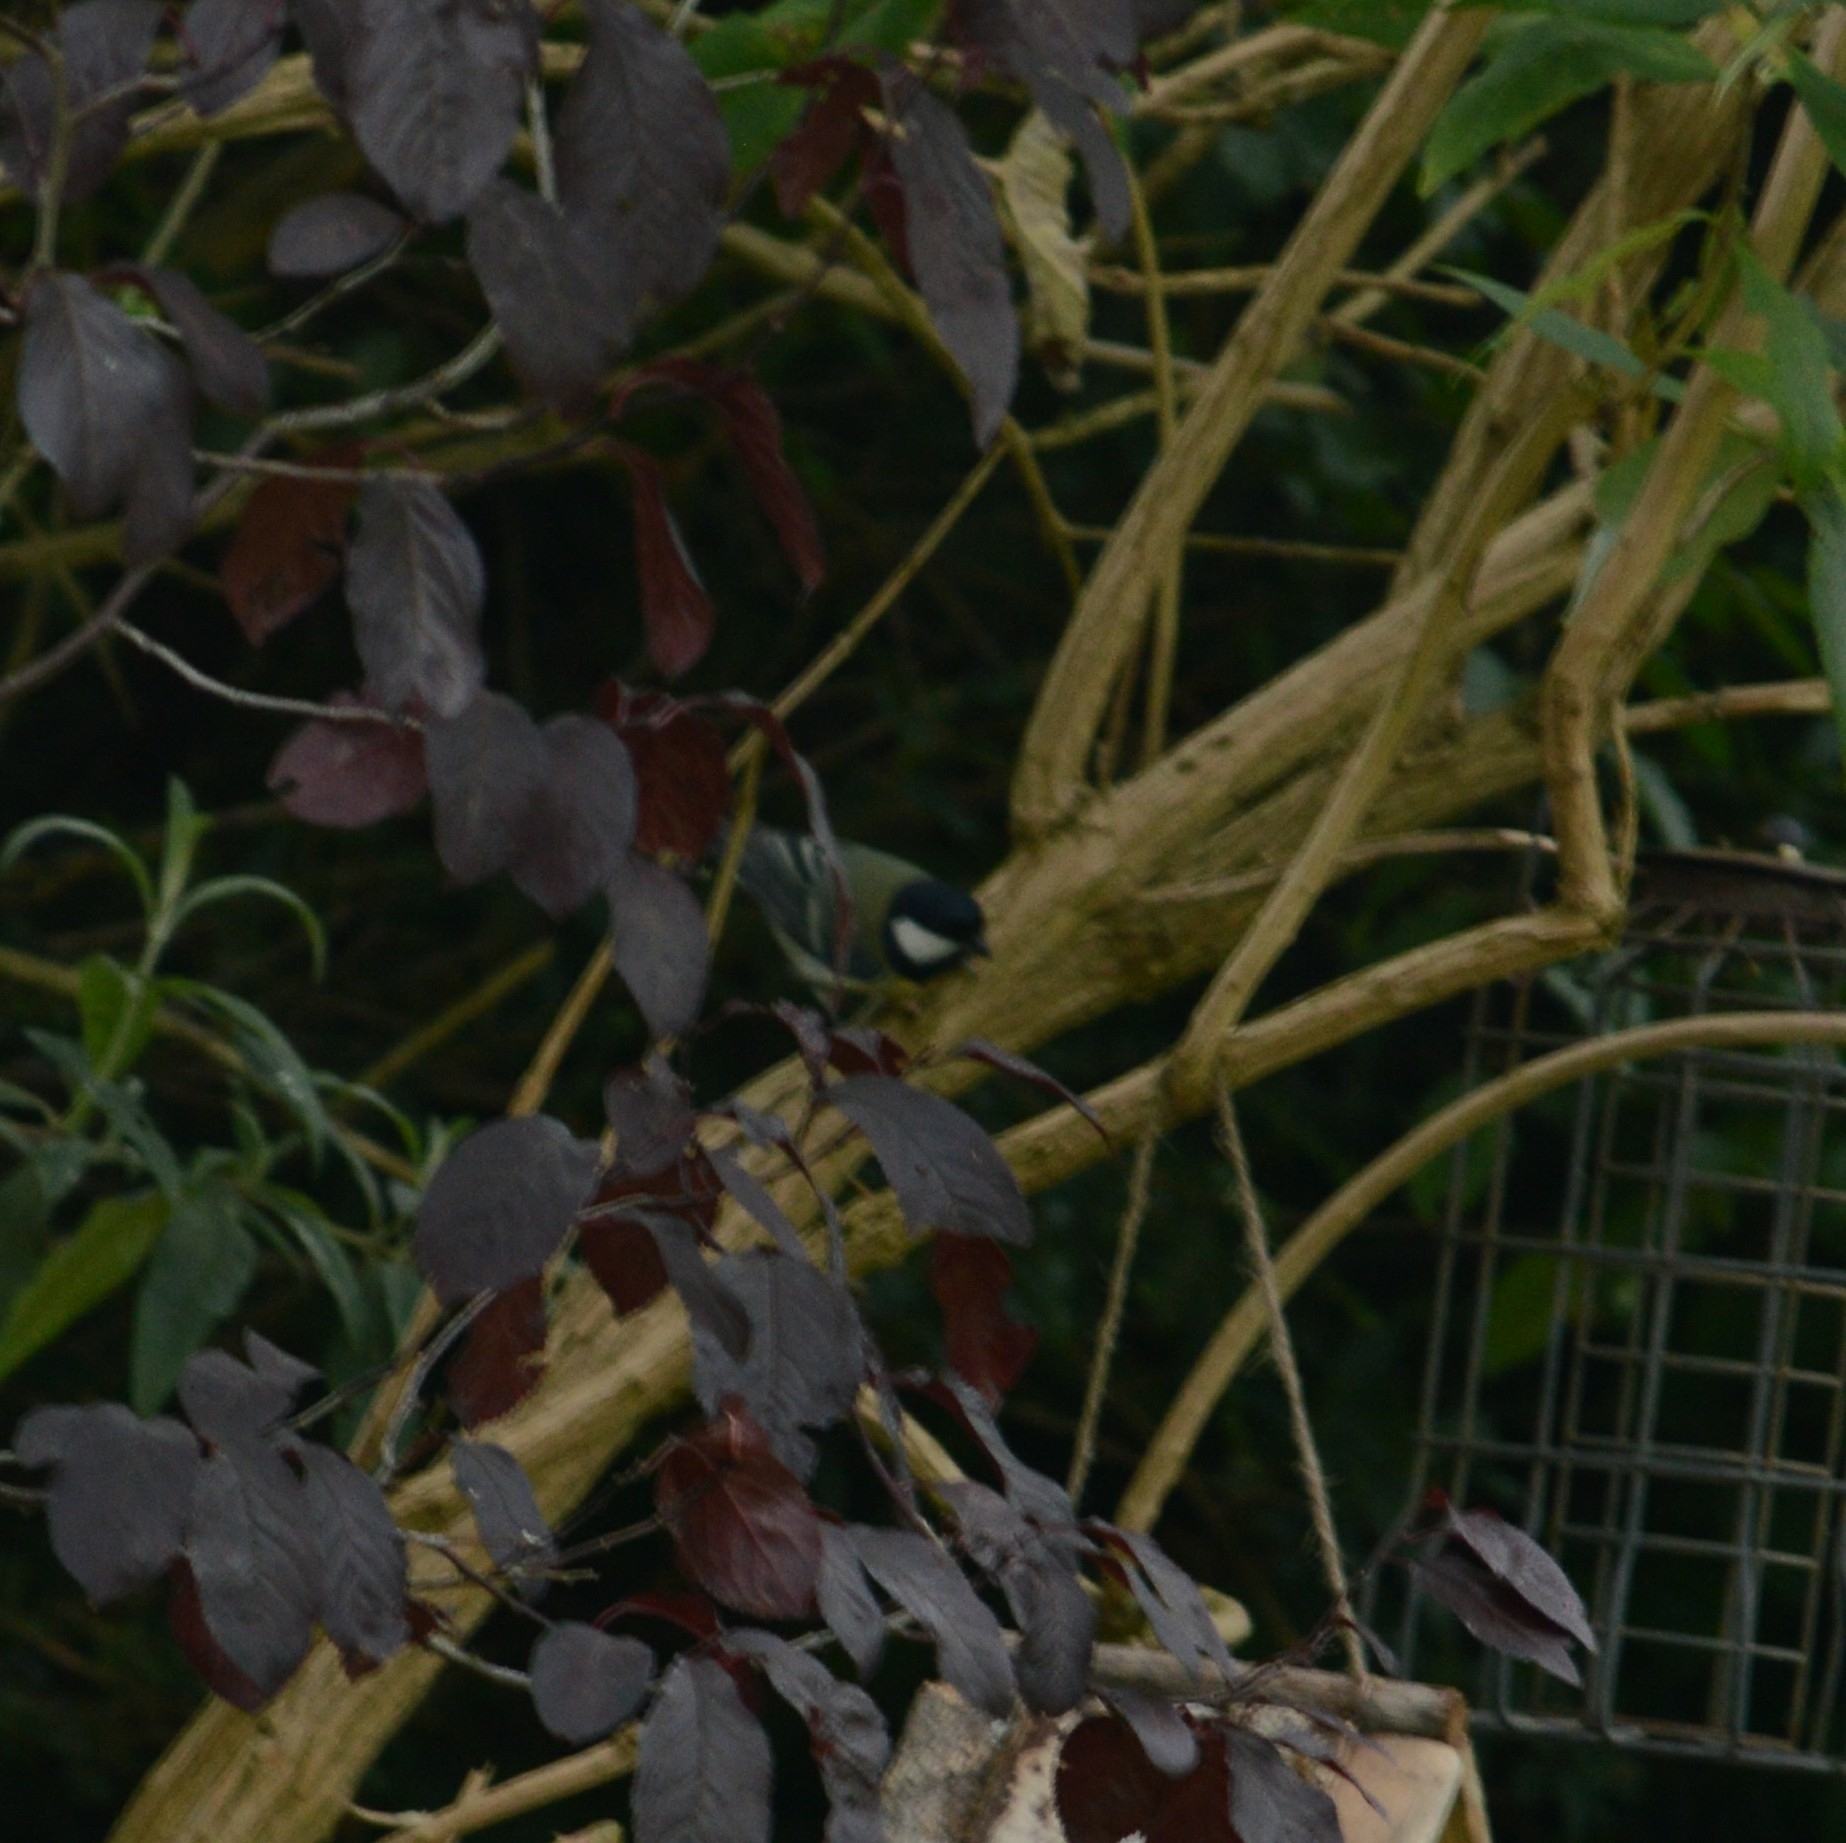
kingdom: Animalia
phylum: Chordata
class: Aves
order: Passeriformes
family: Paridae
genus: Parus
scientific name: Parus major
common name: Great tit
